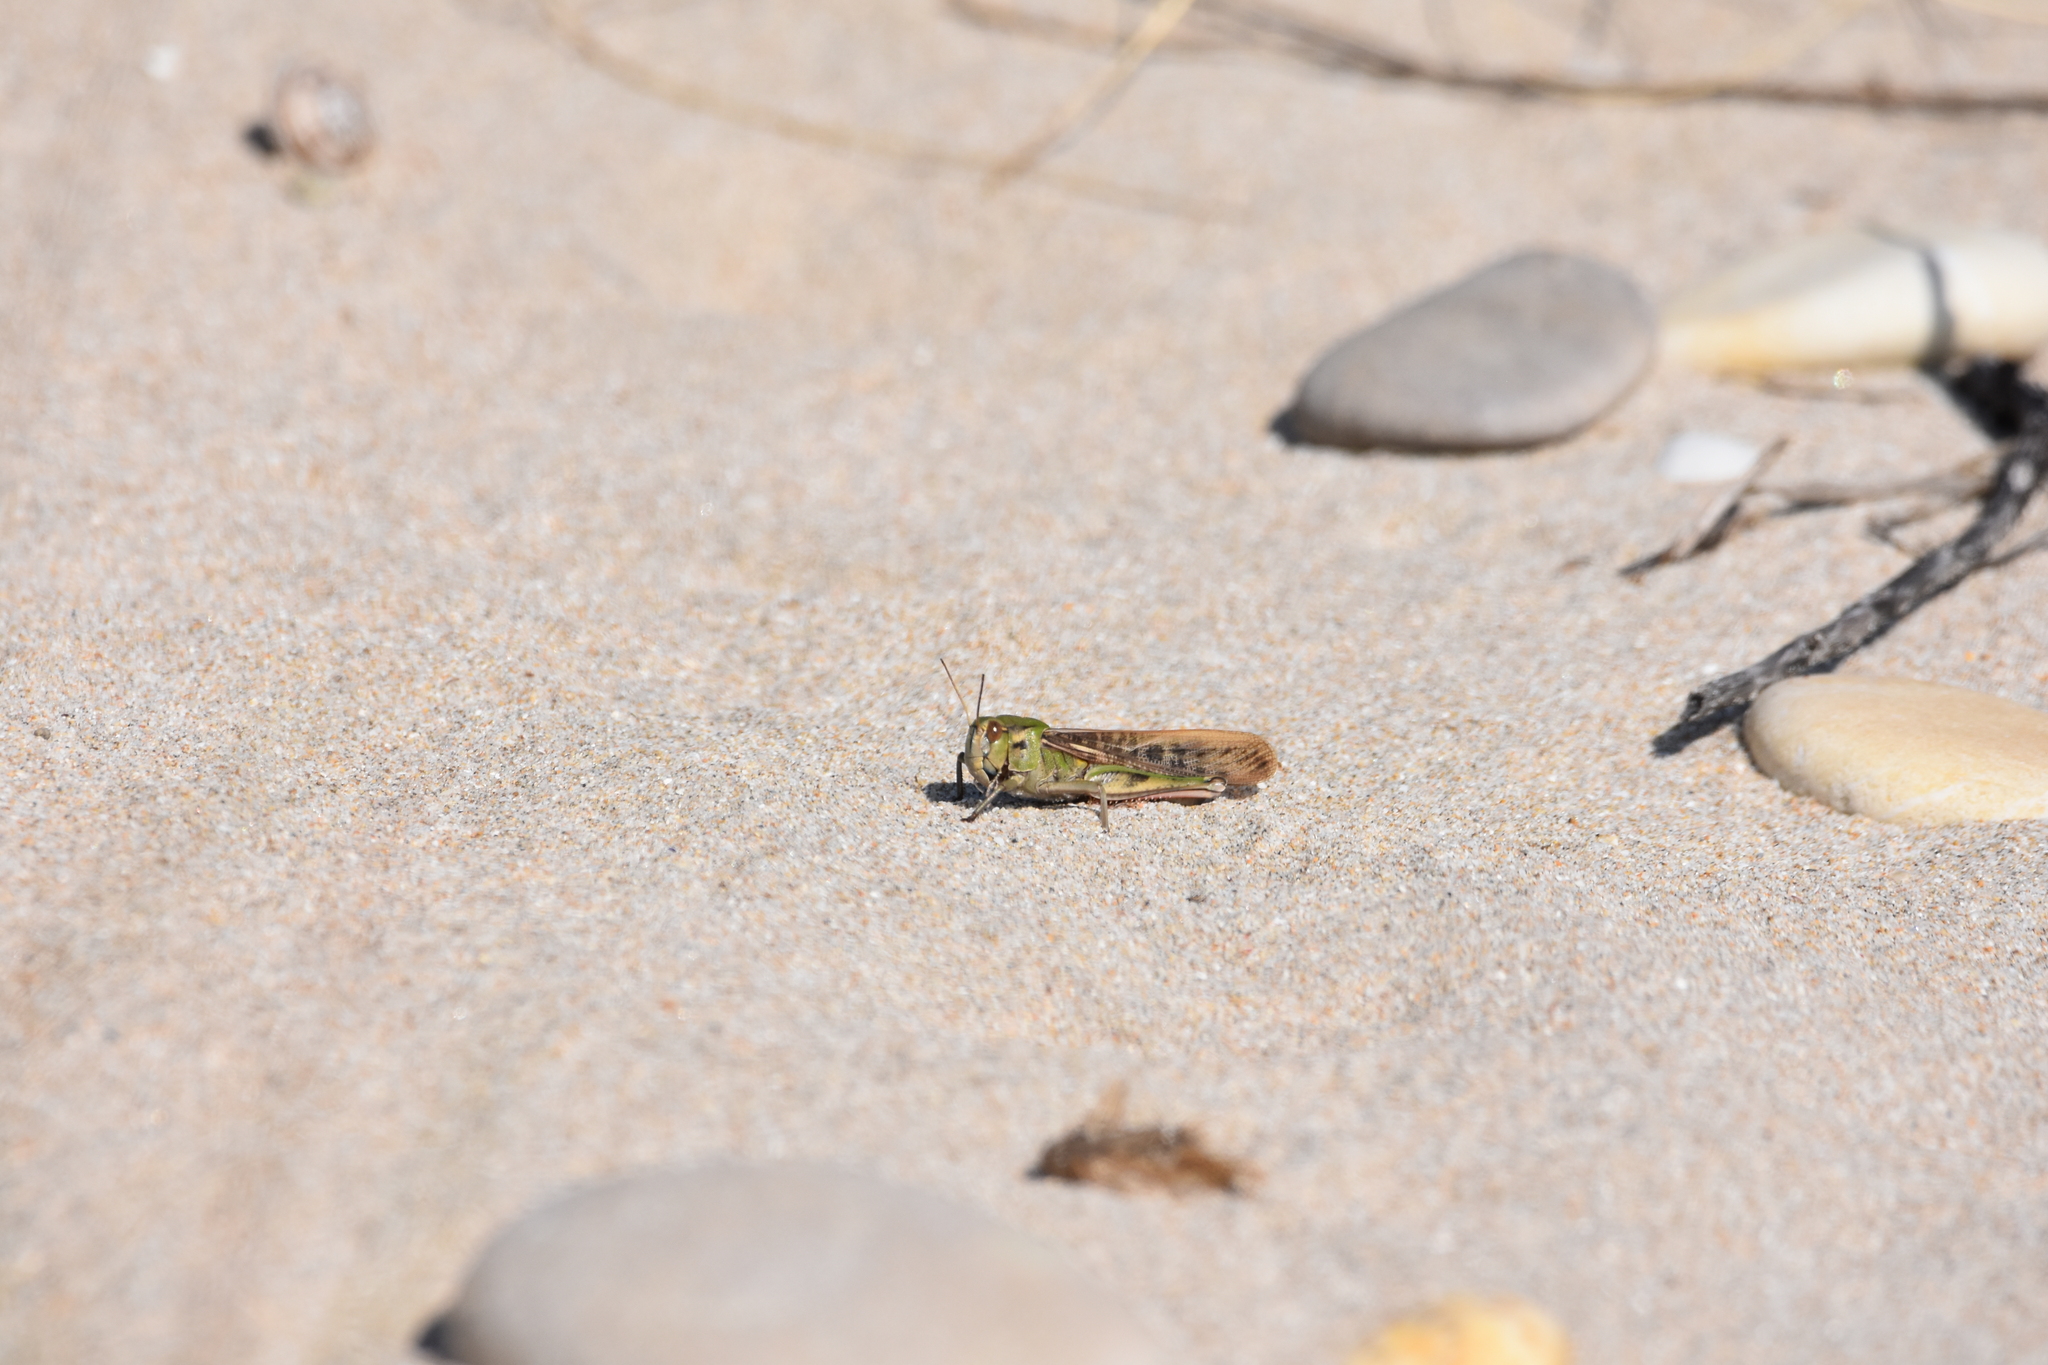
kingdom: Animalia
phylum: Arthropoda
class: Insecta
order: Orthoptera
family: Acrididae
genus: Locusta
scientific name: Locusta migratoria
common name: Migratory locust
